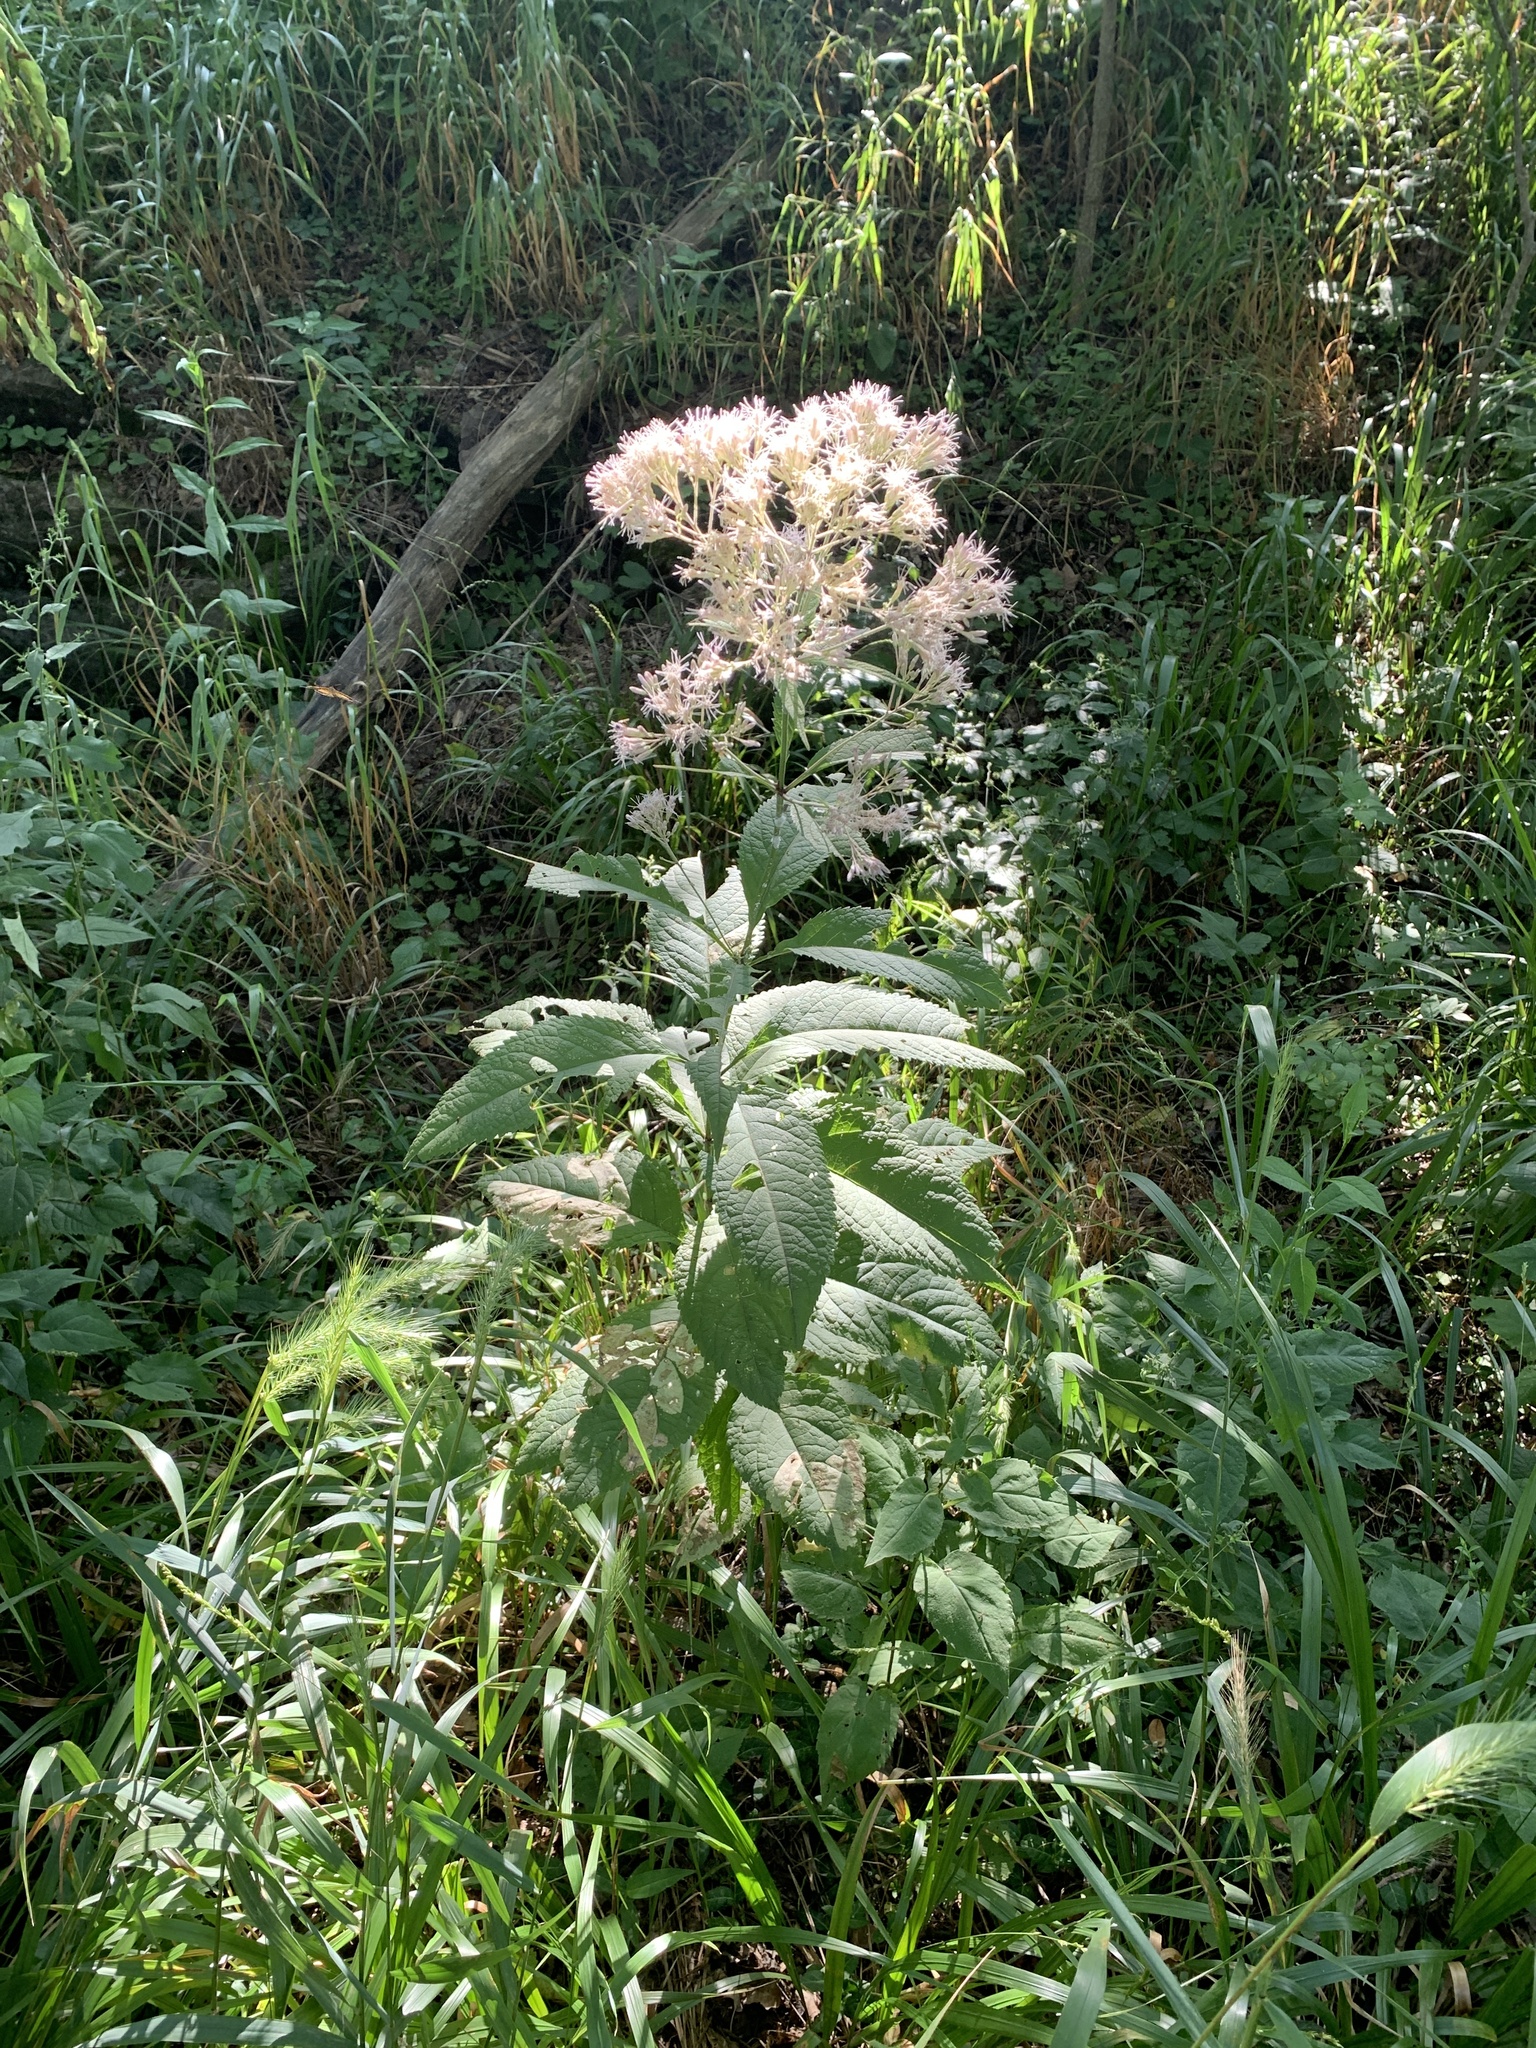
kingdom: Plantae
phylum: Tracheophyta
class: Magnoliopsida
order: Asterales
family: Asteraceae
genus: Eutrochium
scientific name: Eutrochium purpureum
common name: Gravelroot
